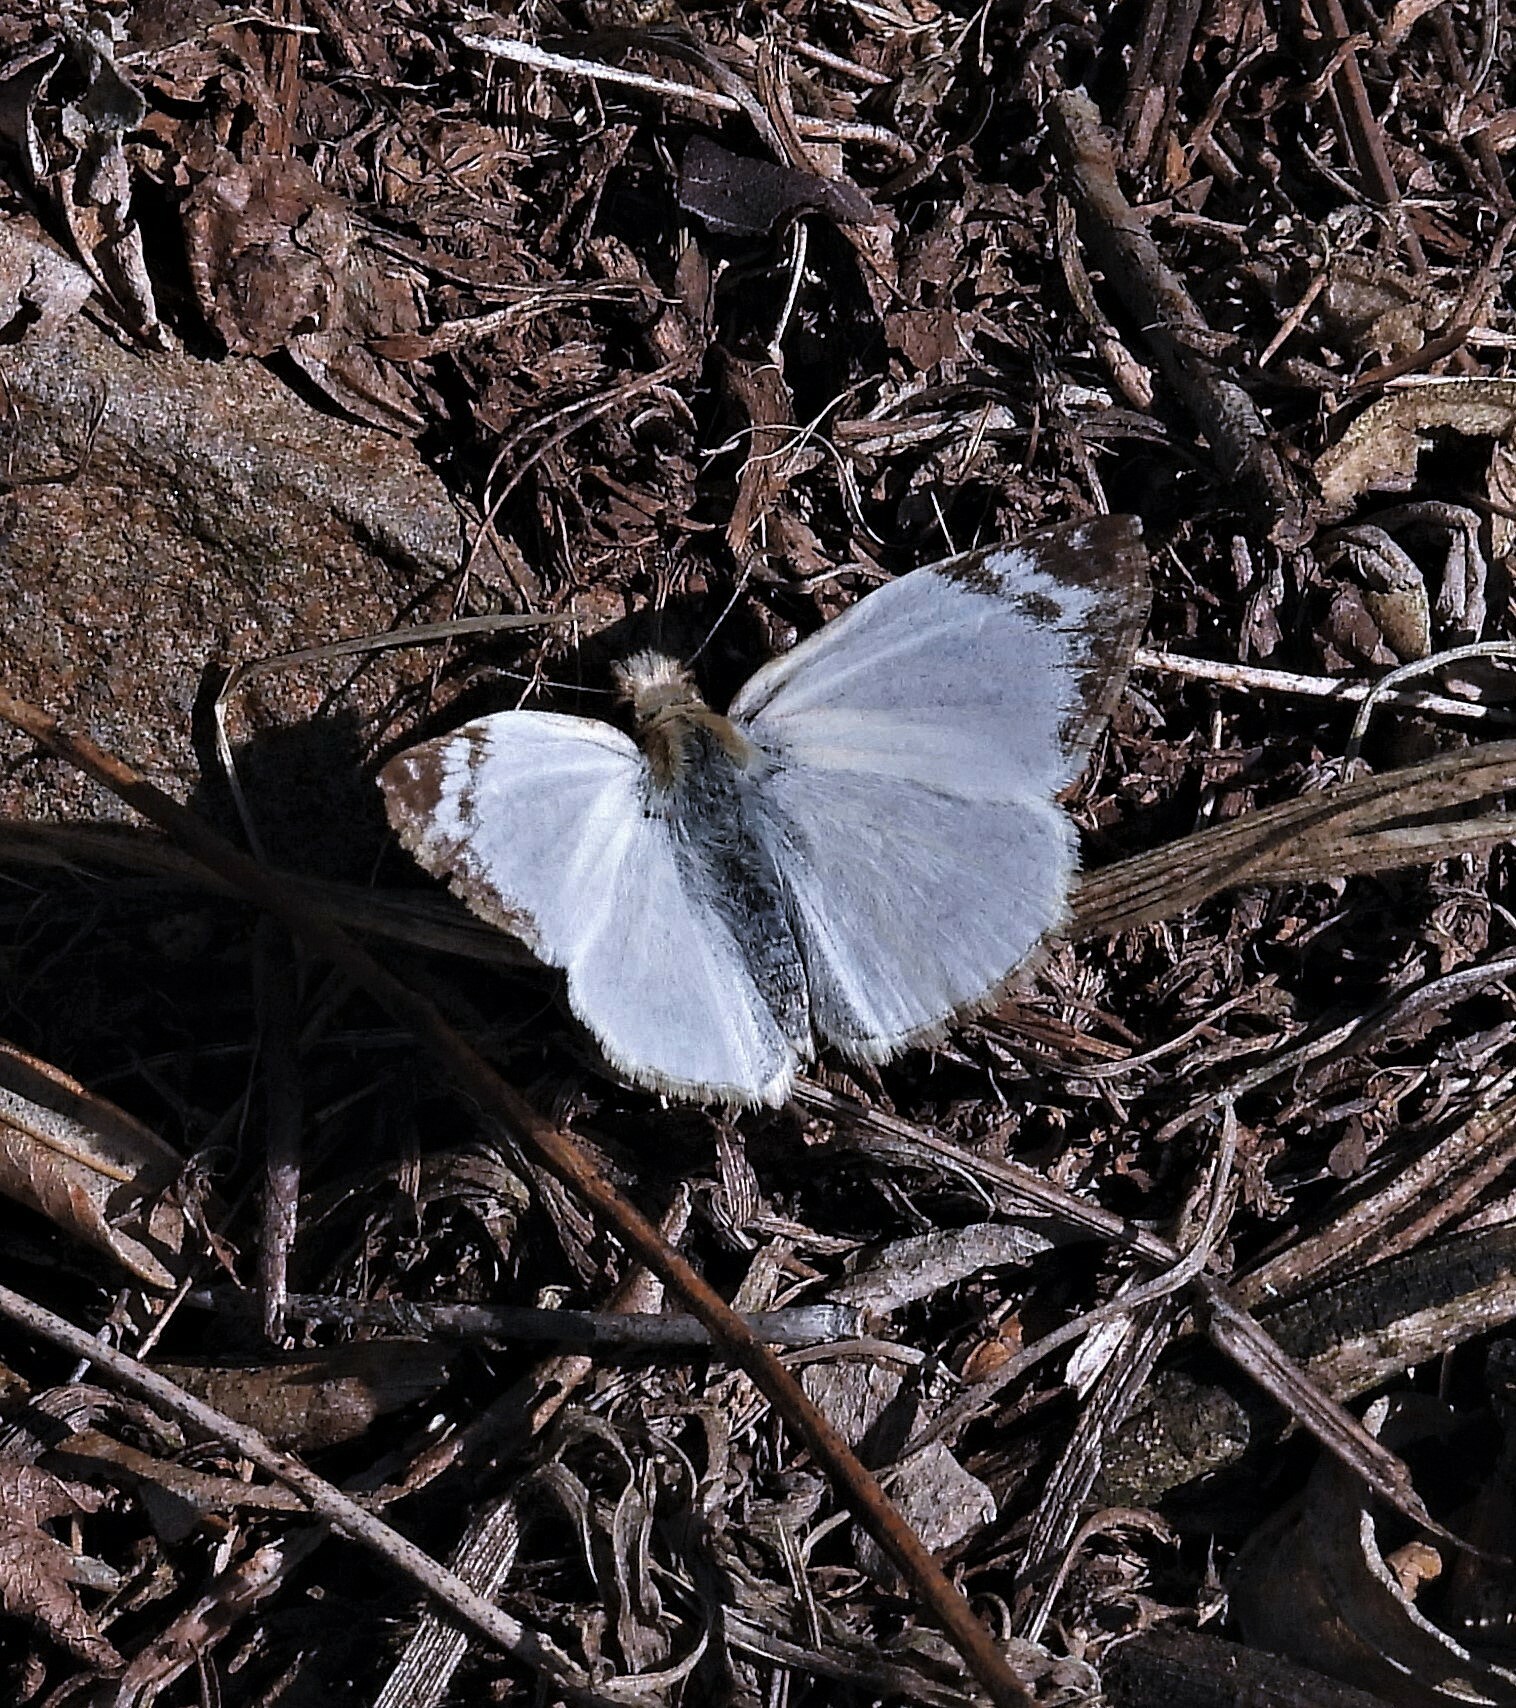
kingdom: Animalia
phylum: Arthropoda
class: Insecta
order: Lepidoptera
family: Hesperiidae
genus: Heliopetes
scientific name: Heliopetes laviana
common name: Laviana white-skipper
